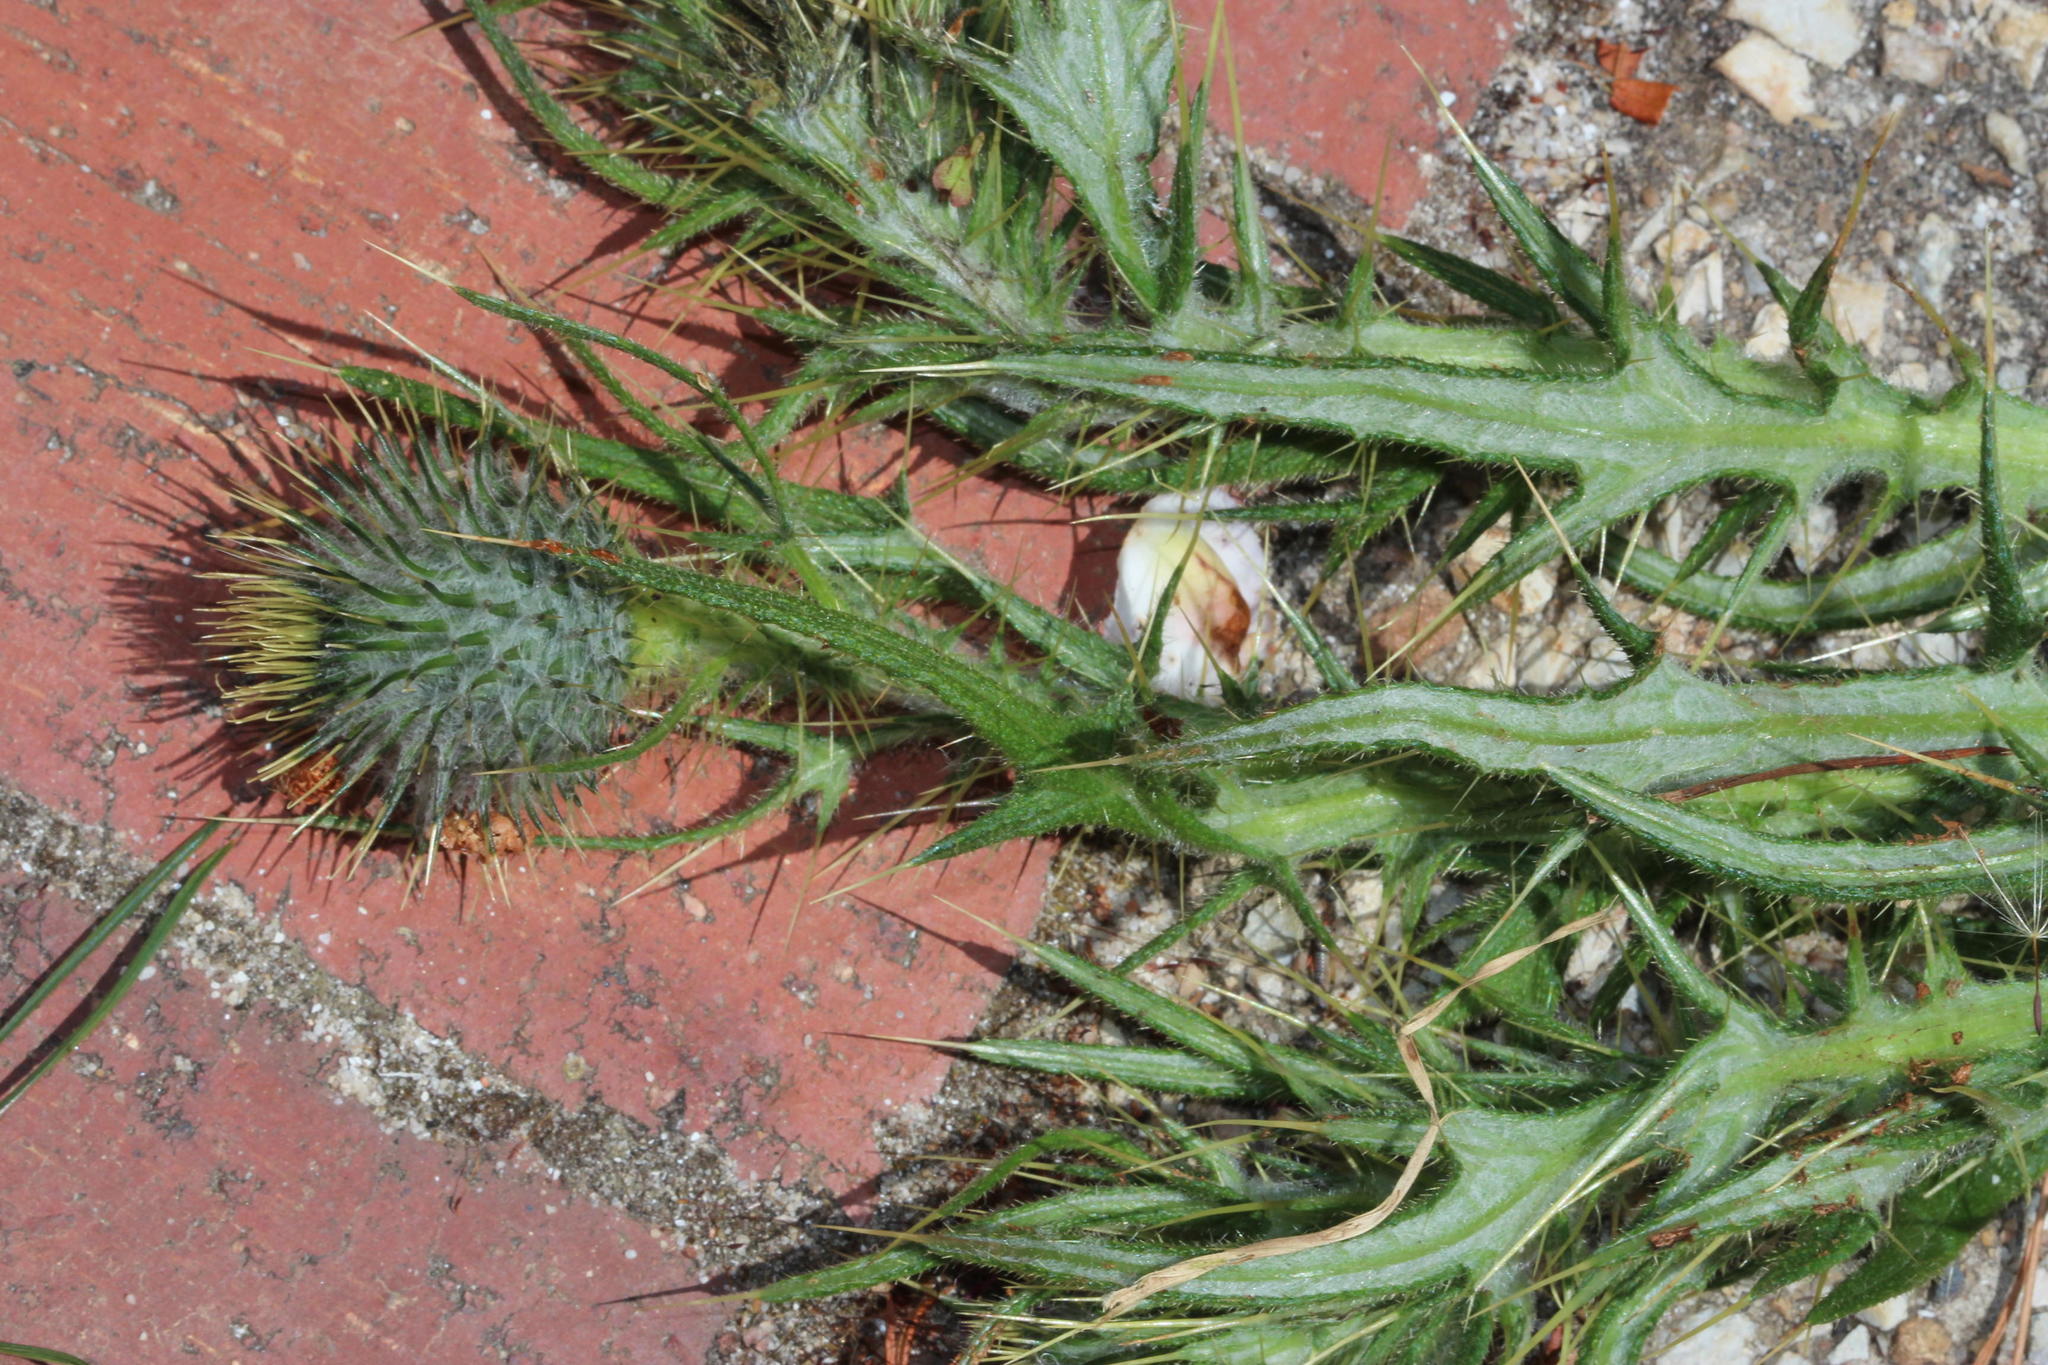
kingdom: Plantae
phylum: Tracheophyta
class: Magnoliopsida
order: Asterales
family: Asteraceae
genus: Cirsium
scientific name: Cirsium vulgare
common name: Bull thistle
